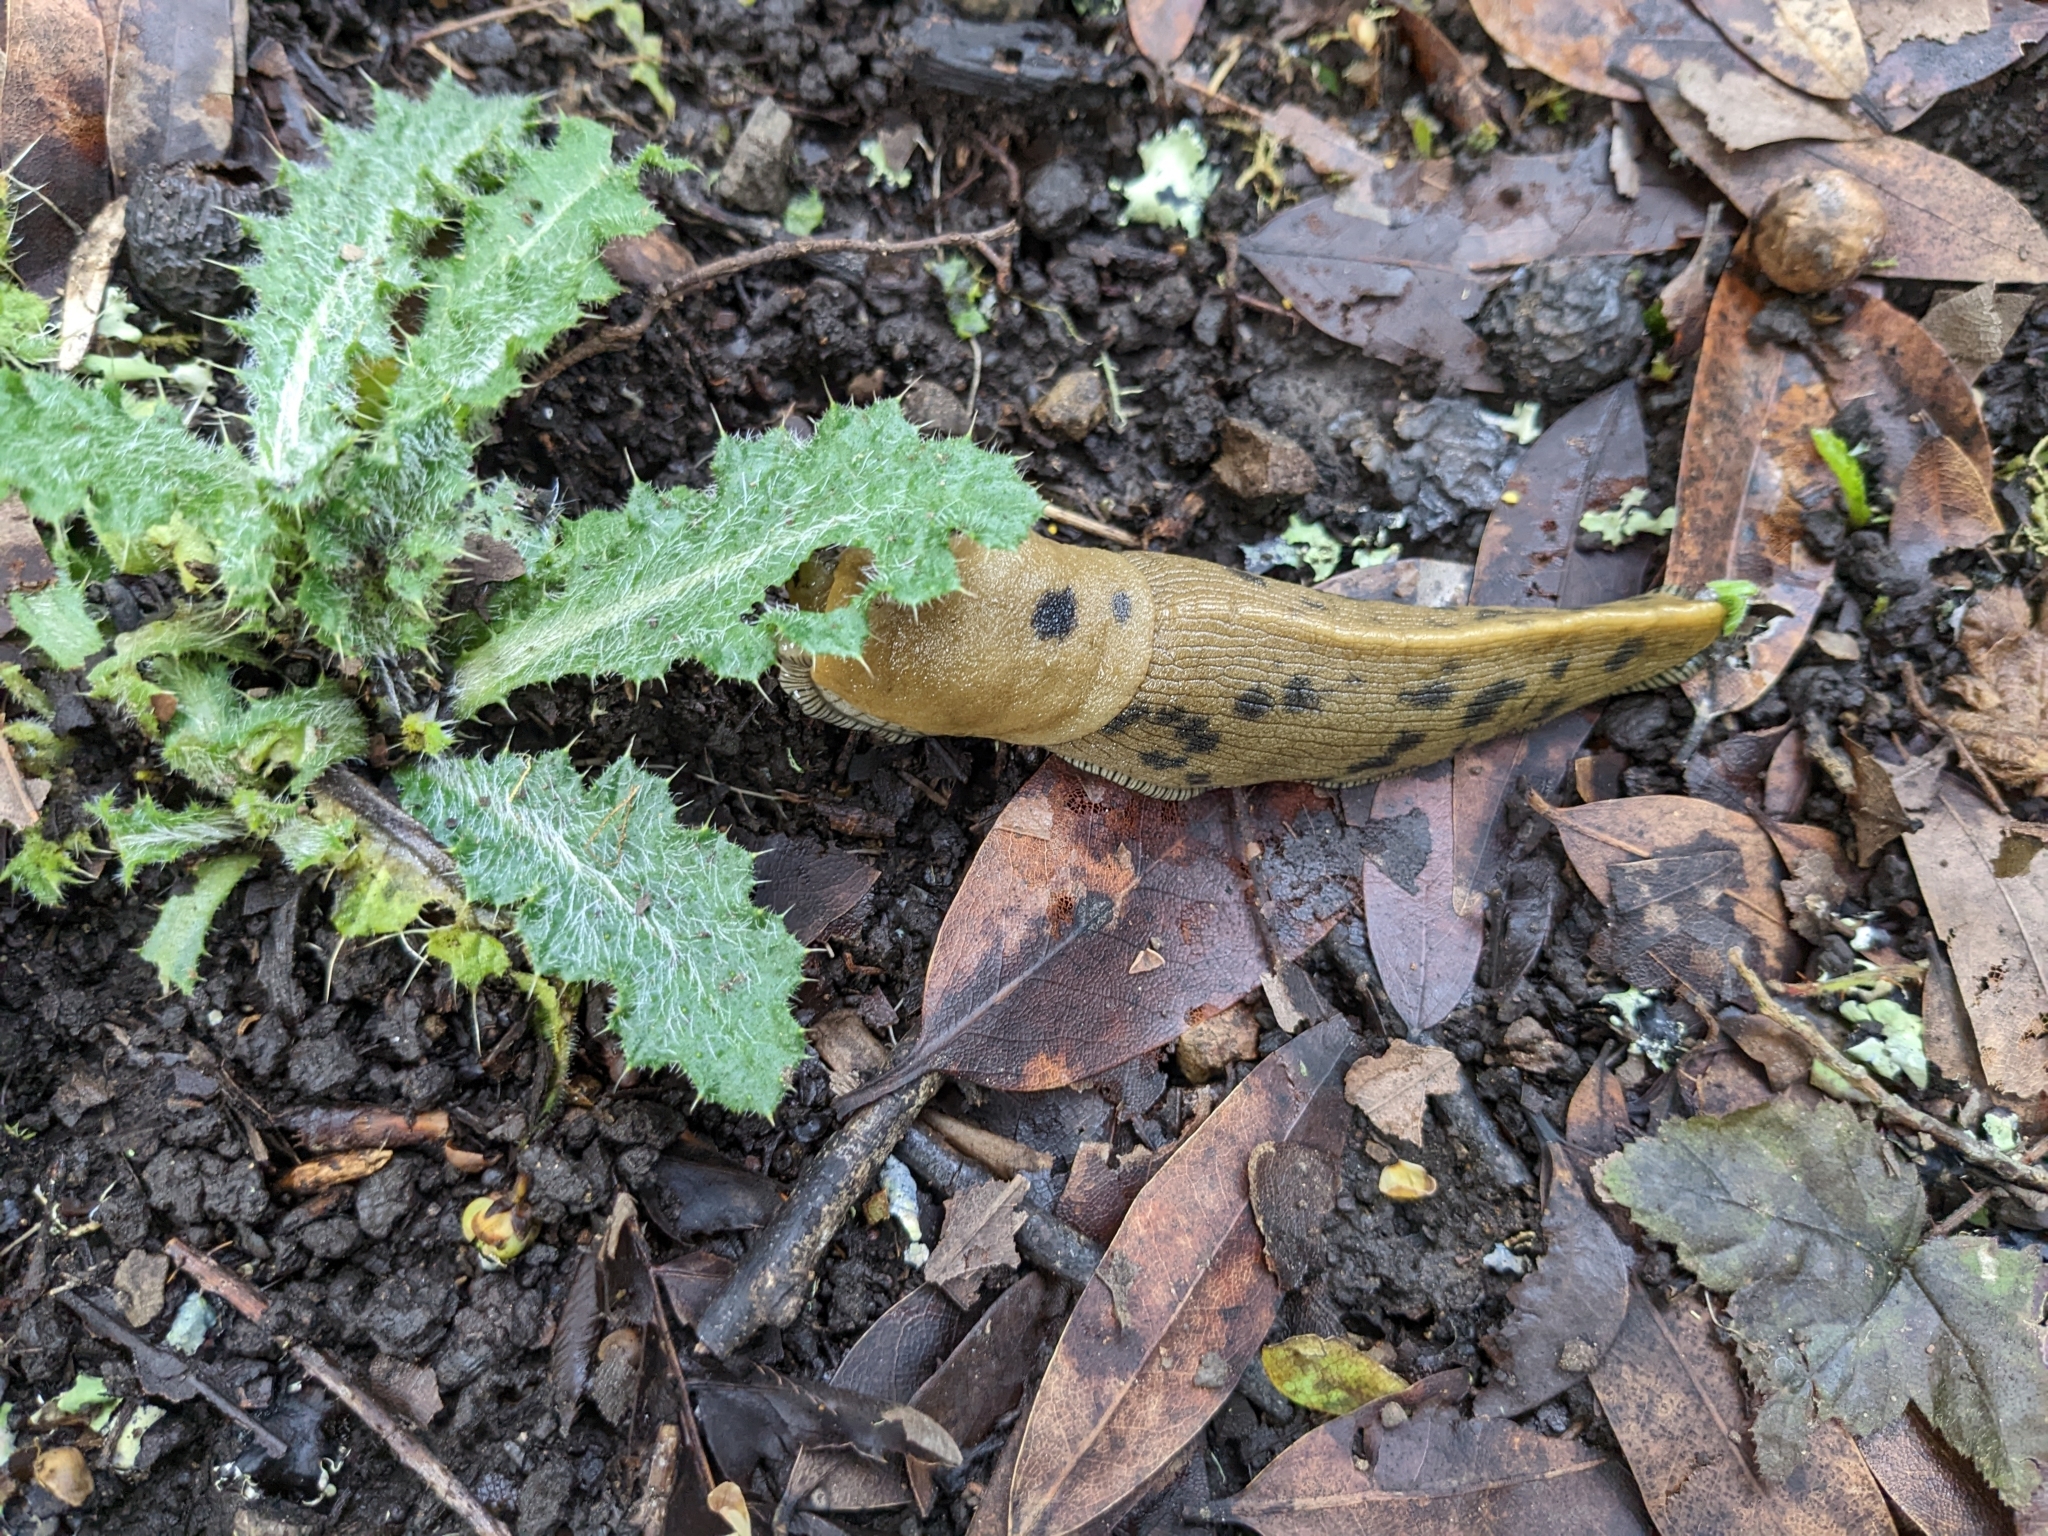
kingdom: Animalia
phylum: Mollusca
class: Gastropoda
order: Stylommatophora
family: Ariolimacidae
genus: Ariolimax
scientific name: Ariolimax buttoni
